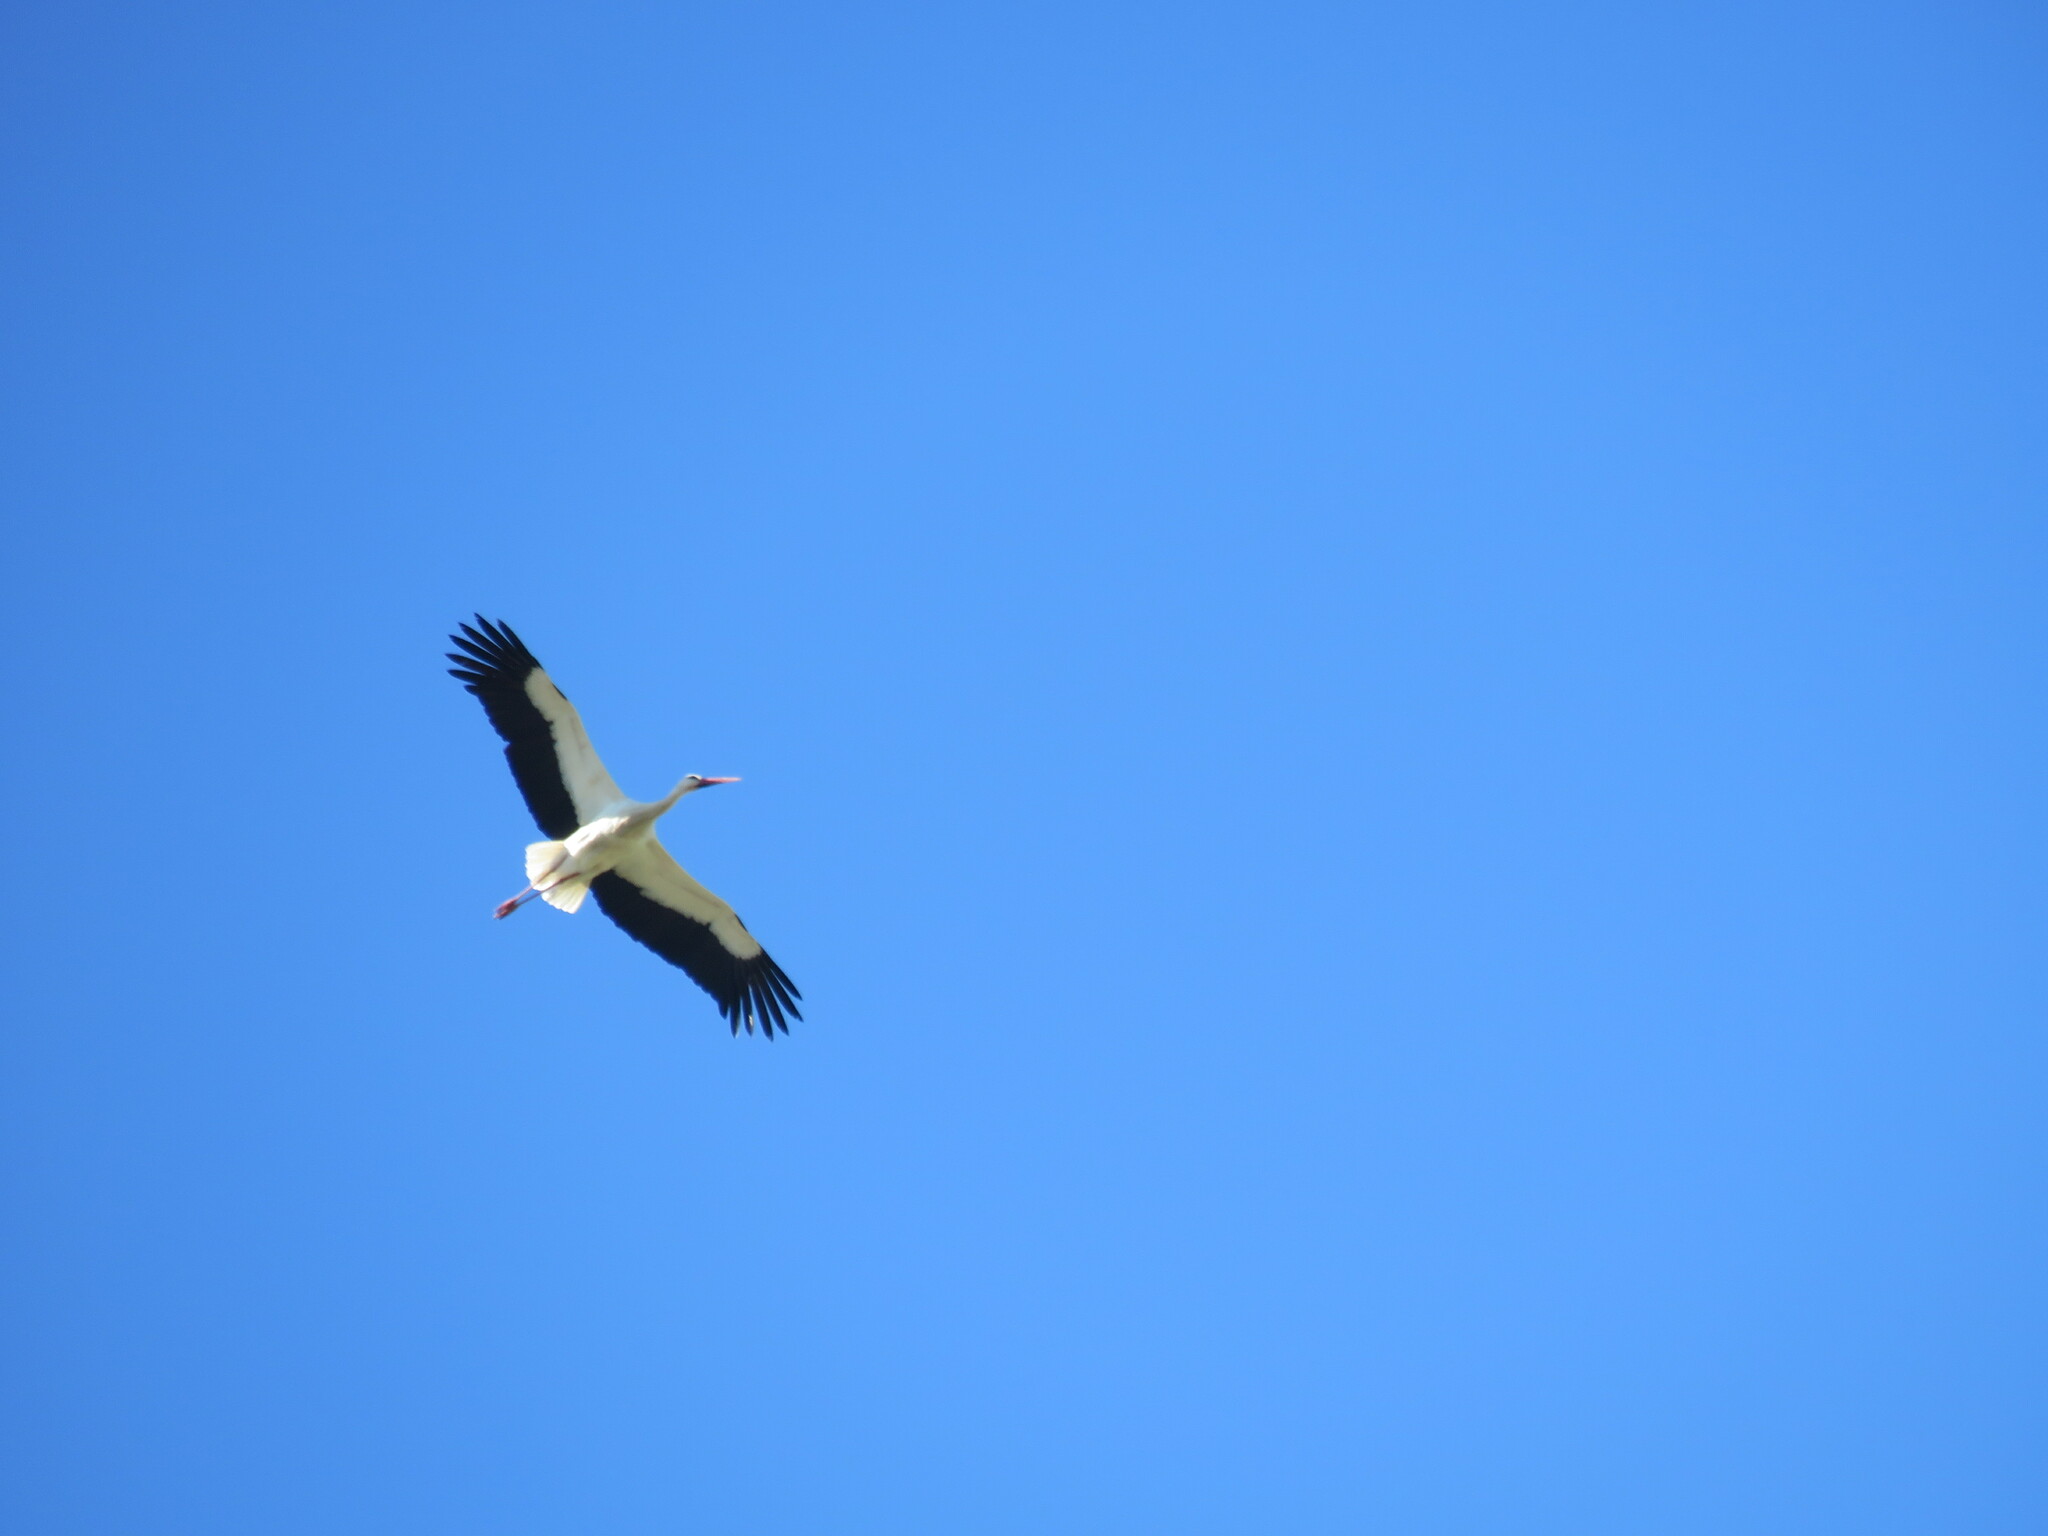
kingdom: Animalia
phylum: Chordata
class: Aves
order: Ciconiiformes
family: Ciconiidae
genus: Ciconia
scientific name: Ciconia ciconia
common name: White stork
